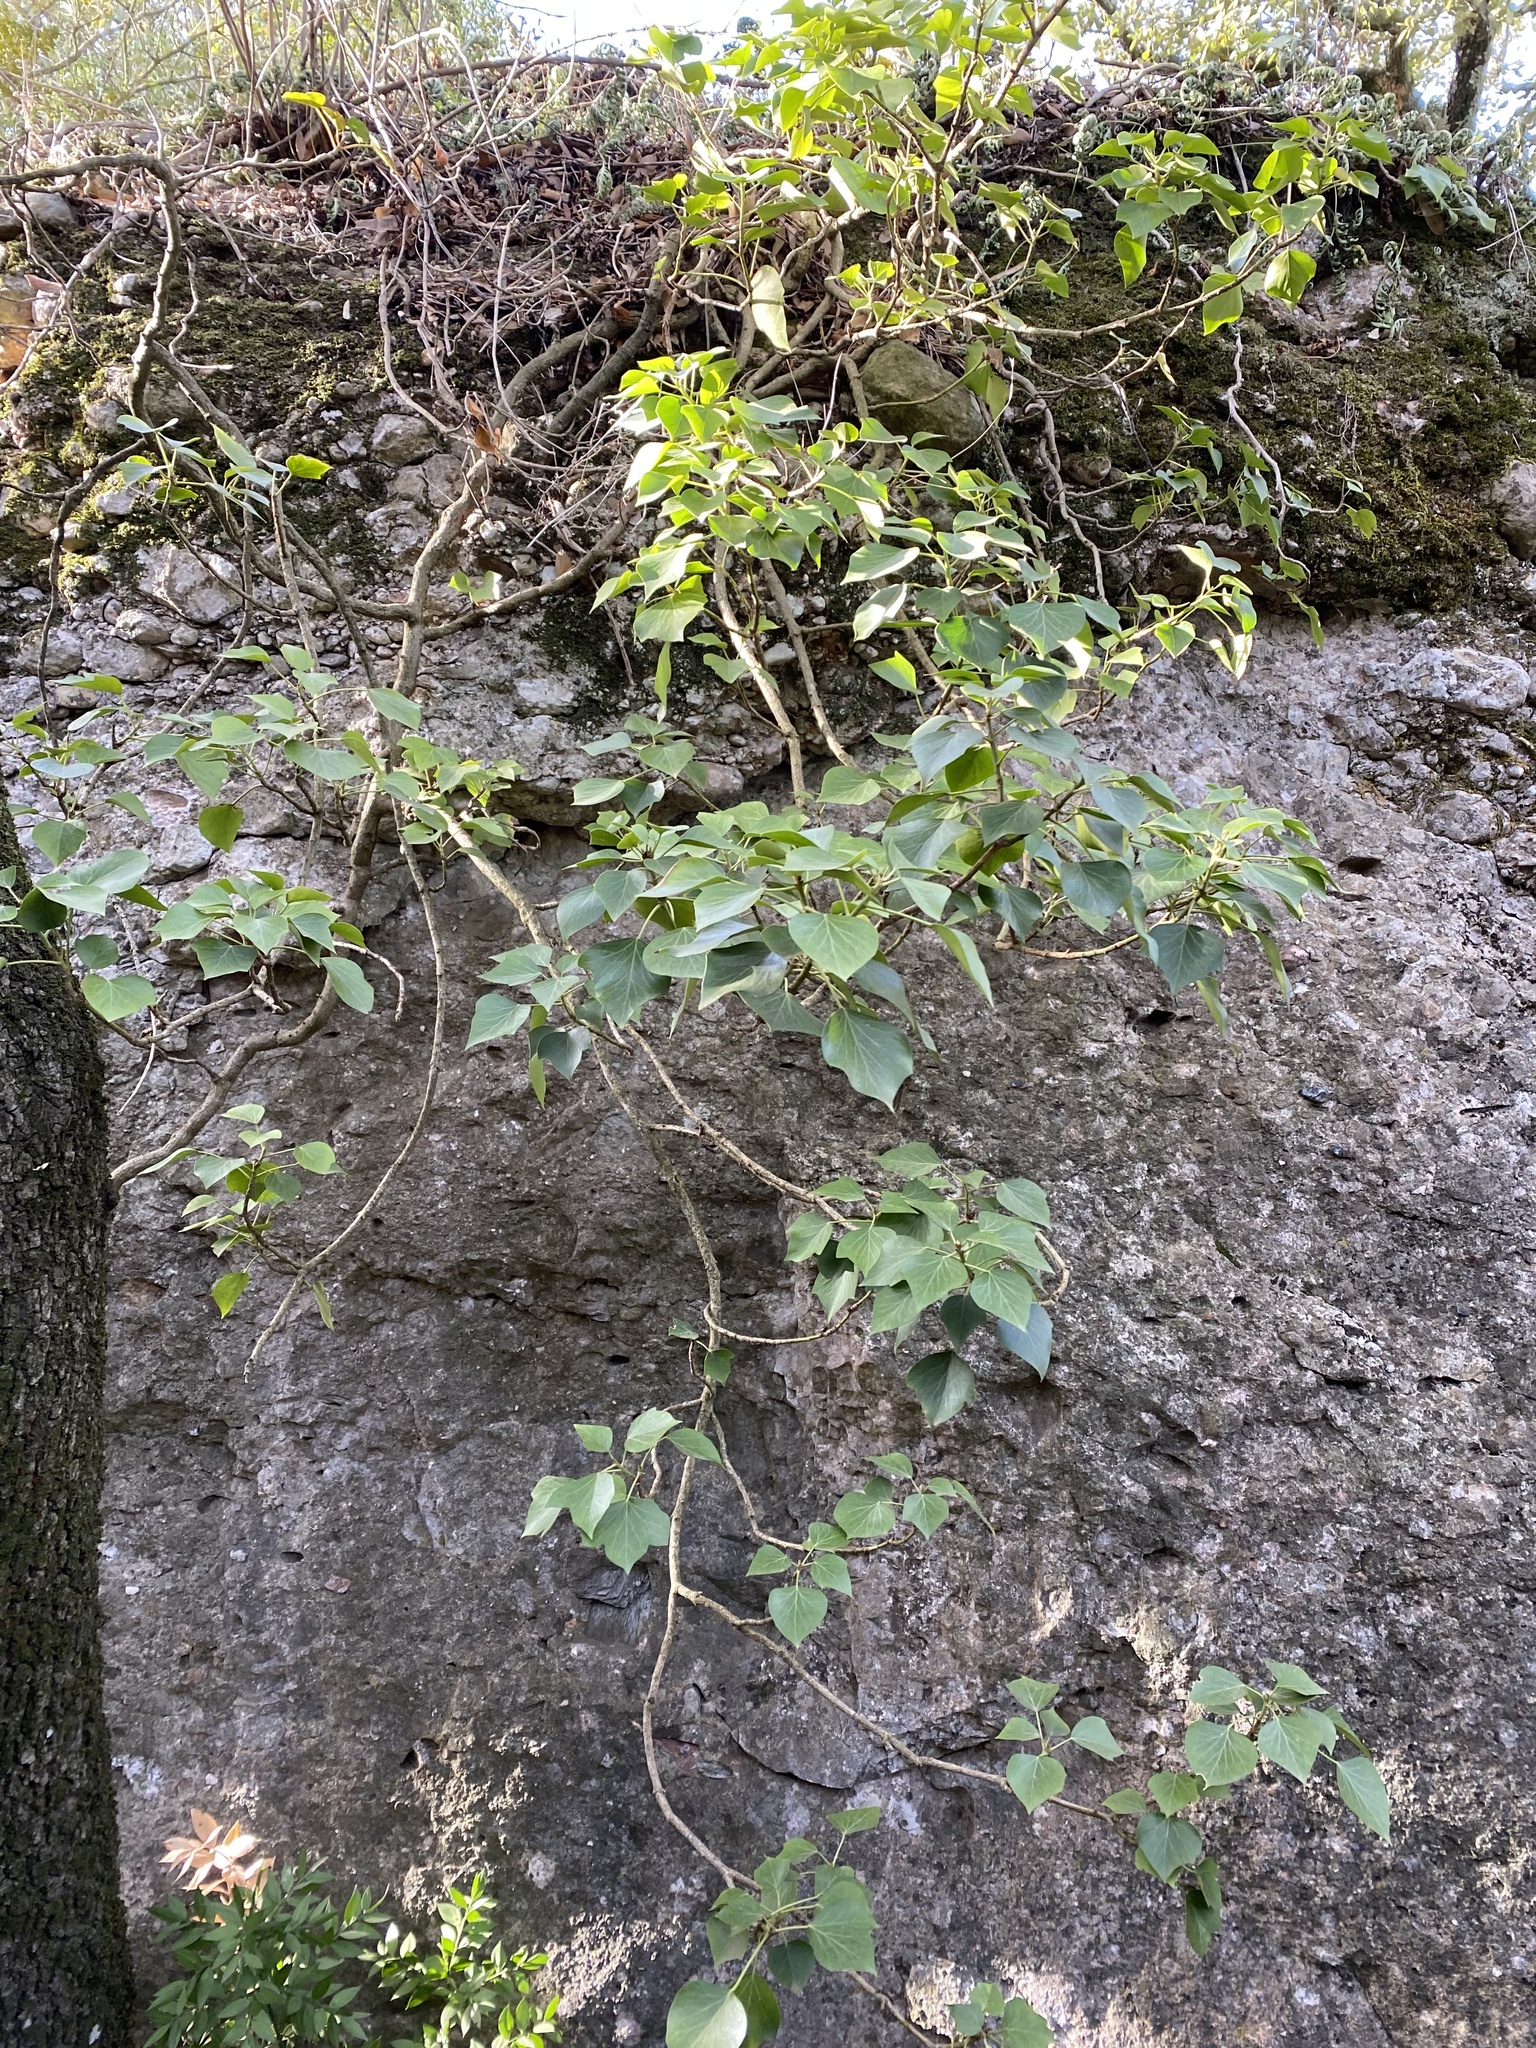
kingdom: Plantae
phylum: Tracheophyta
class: Magnoliopsida
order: Apiales
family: Araliaceae
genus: Hedera
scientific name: Hedera helix
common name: Ivy
